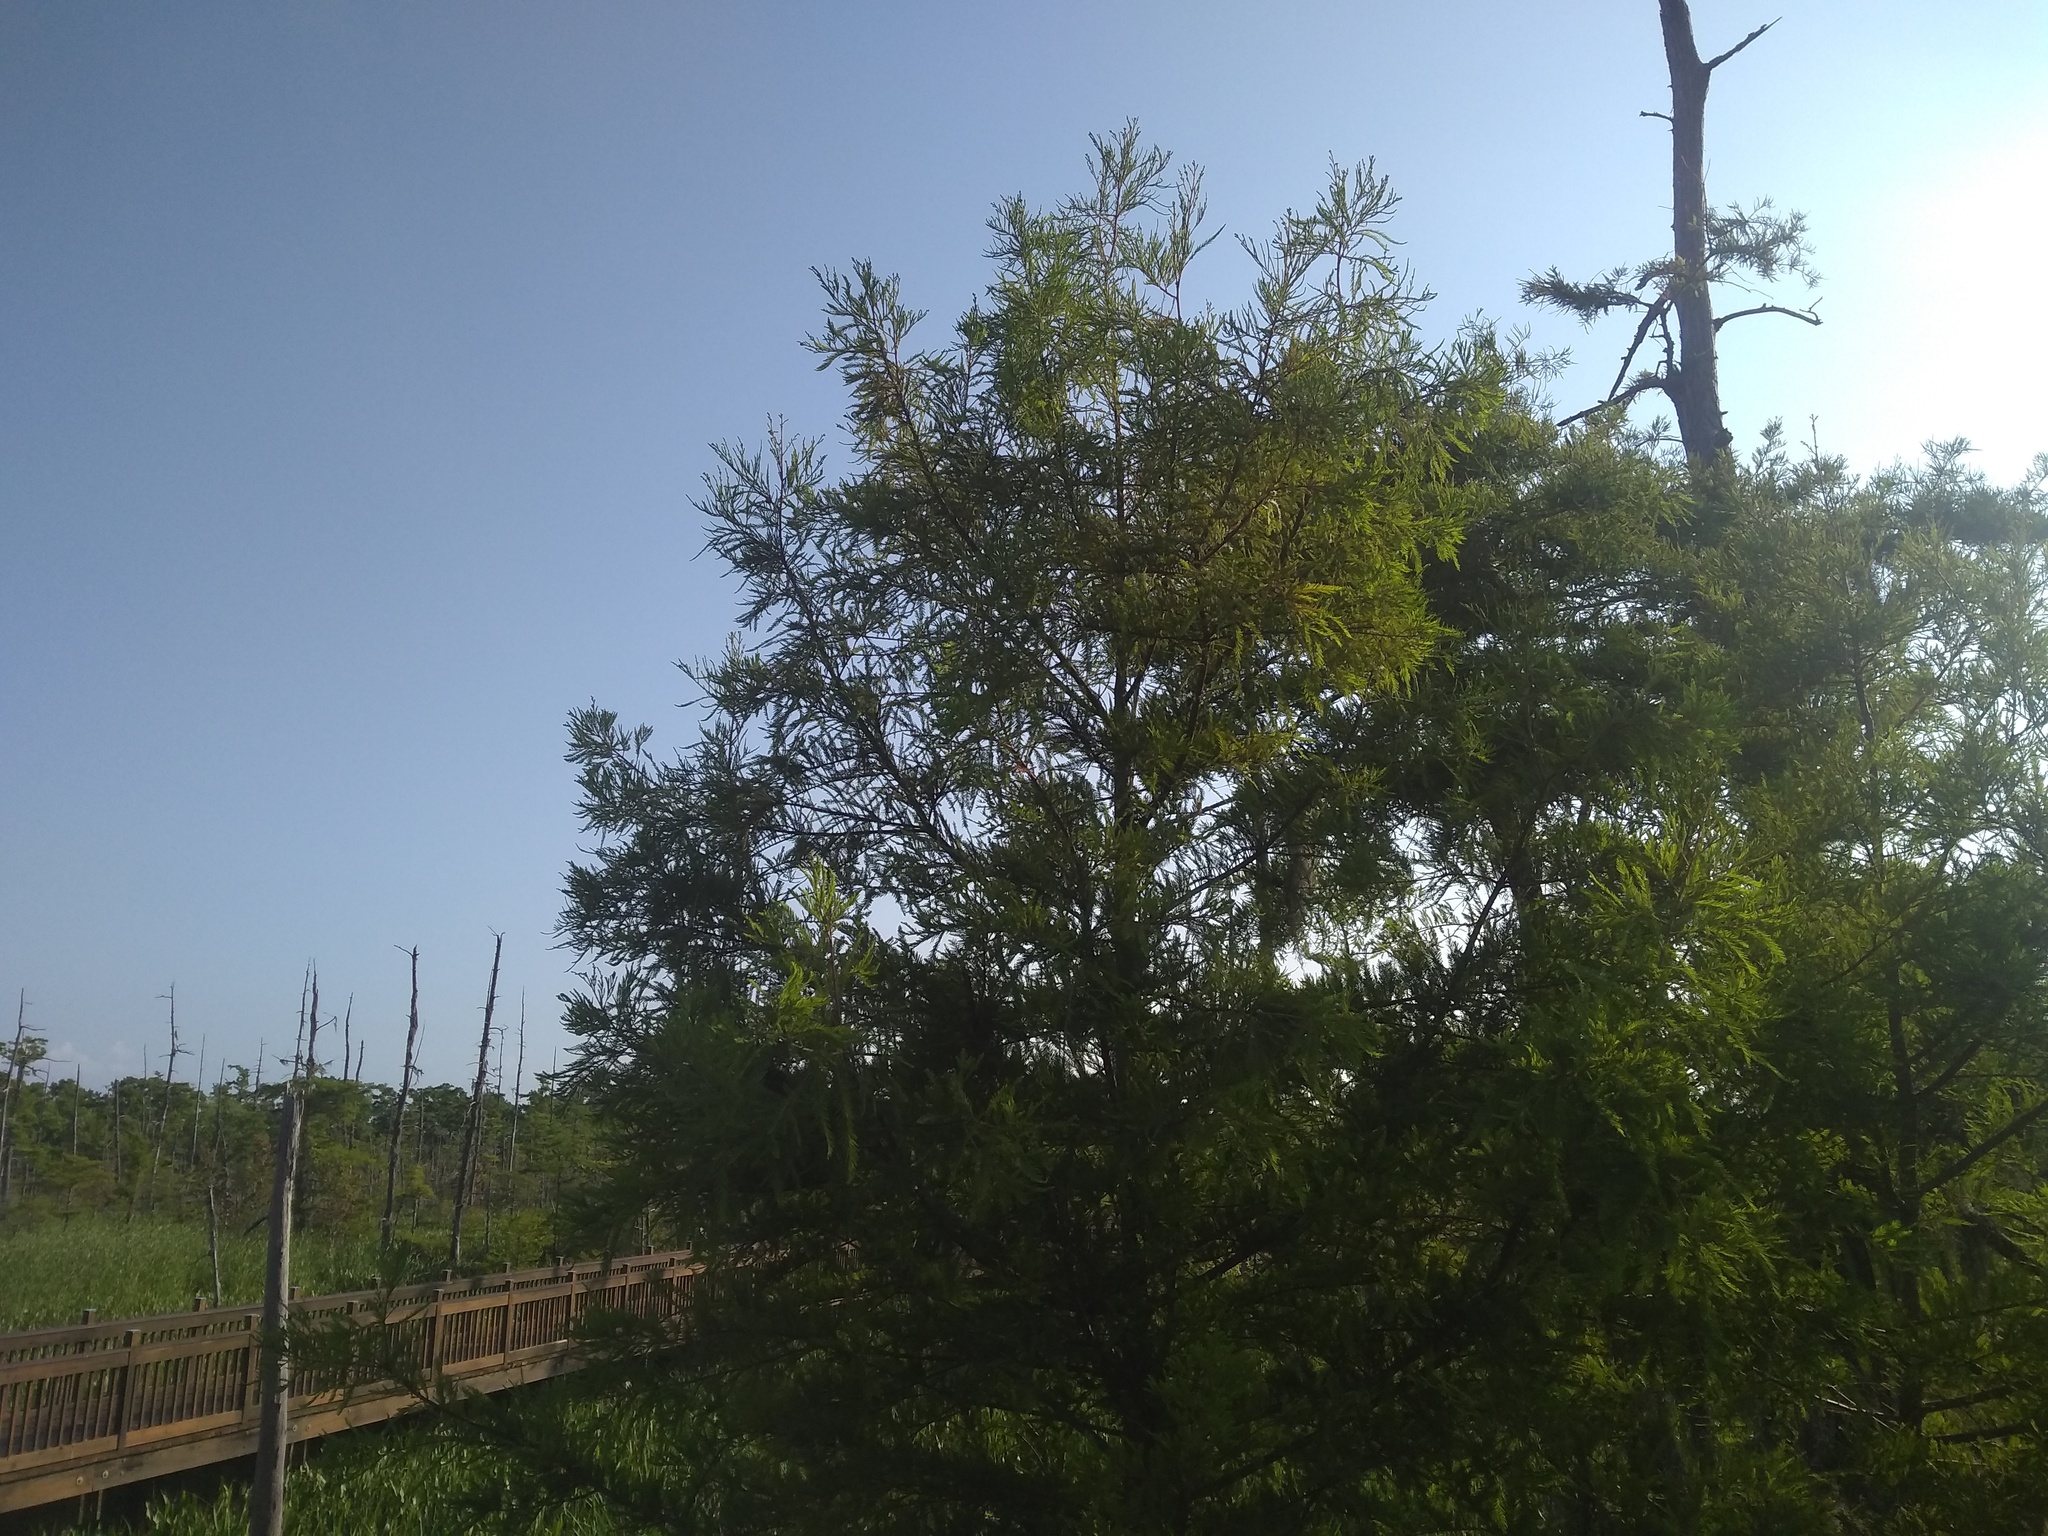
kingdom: Plantae
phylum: Tracheophyta
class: Pinopsida
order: Pinales
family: Cupressaceae
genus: Taxodium
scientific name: Taxodium distichum
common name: Bald cypress
